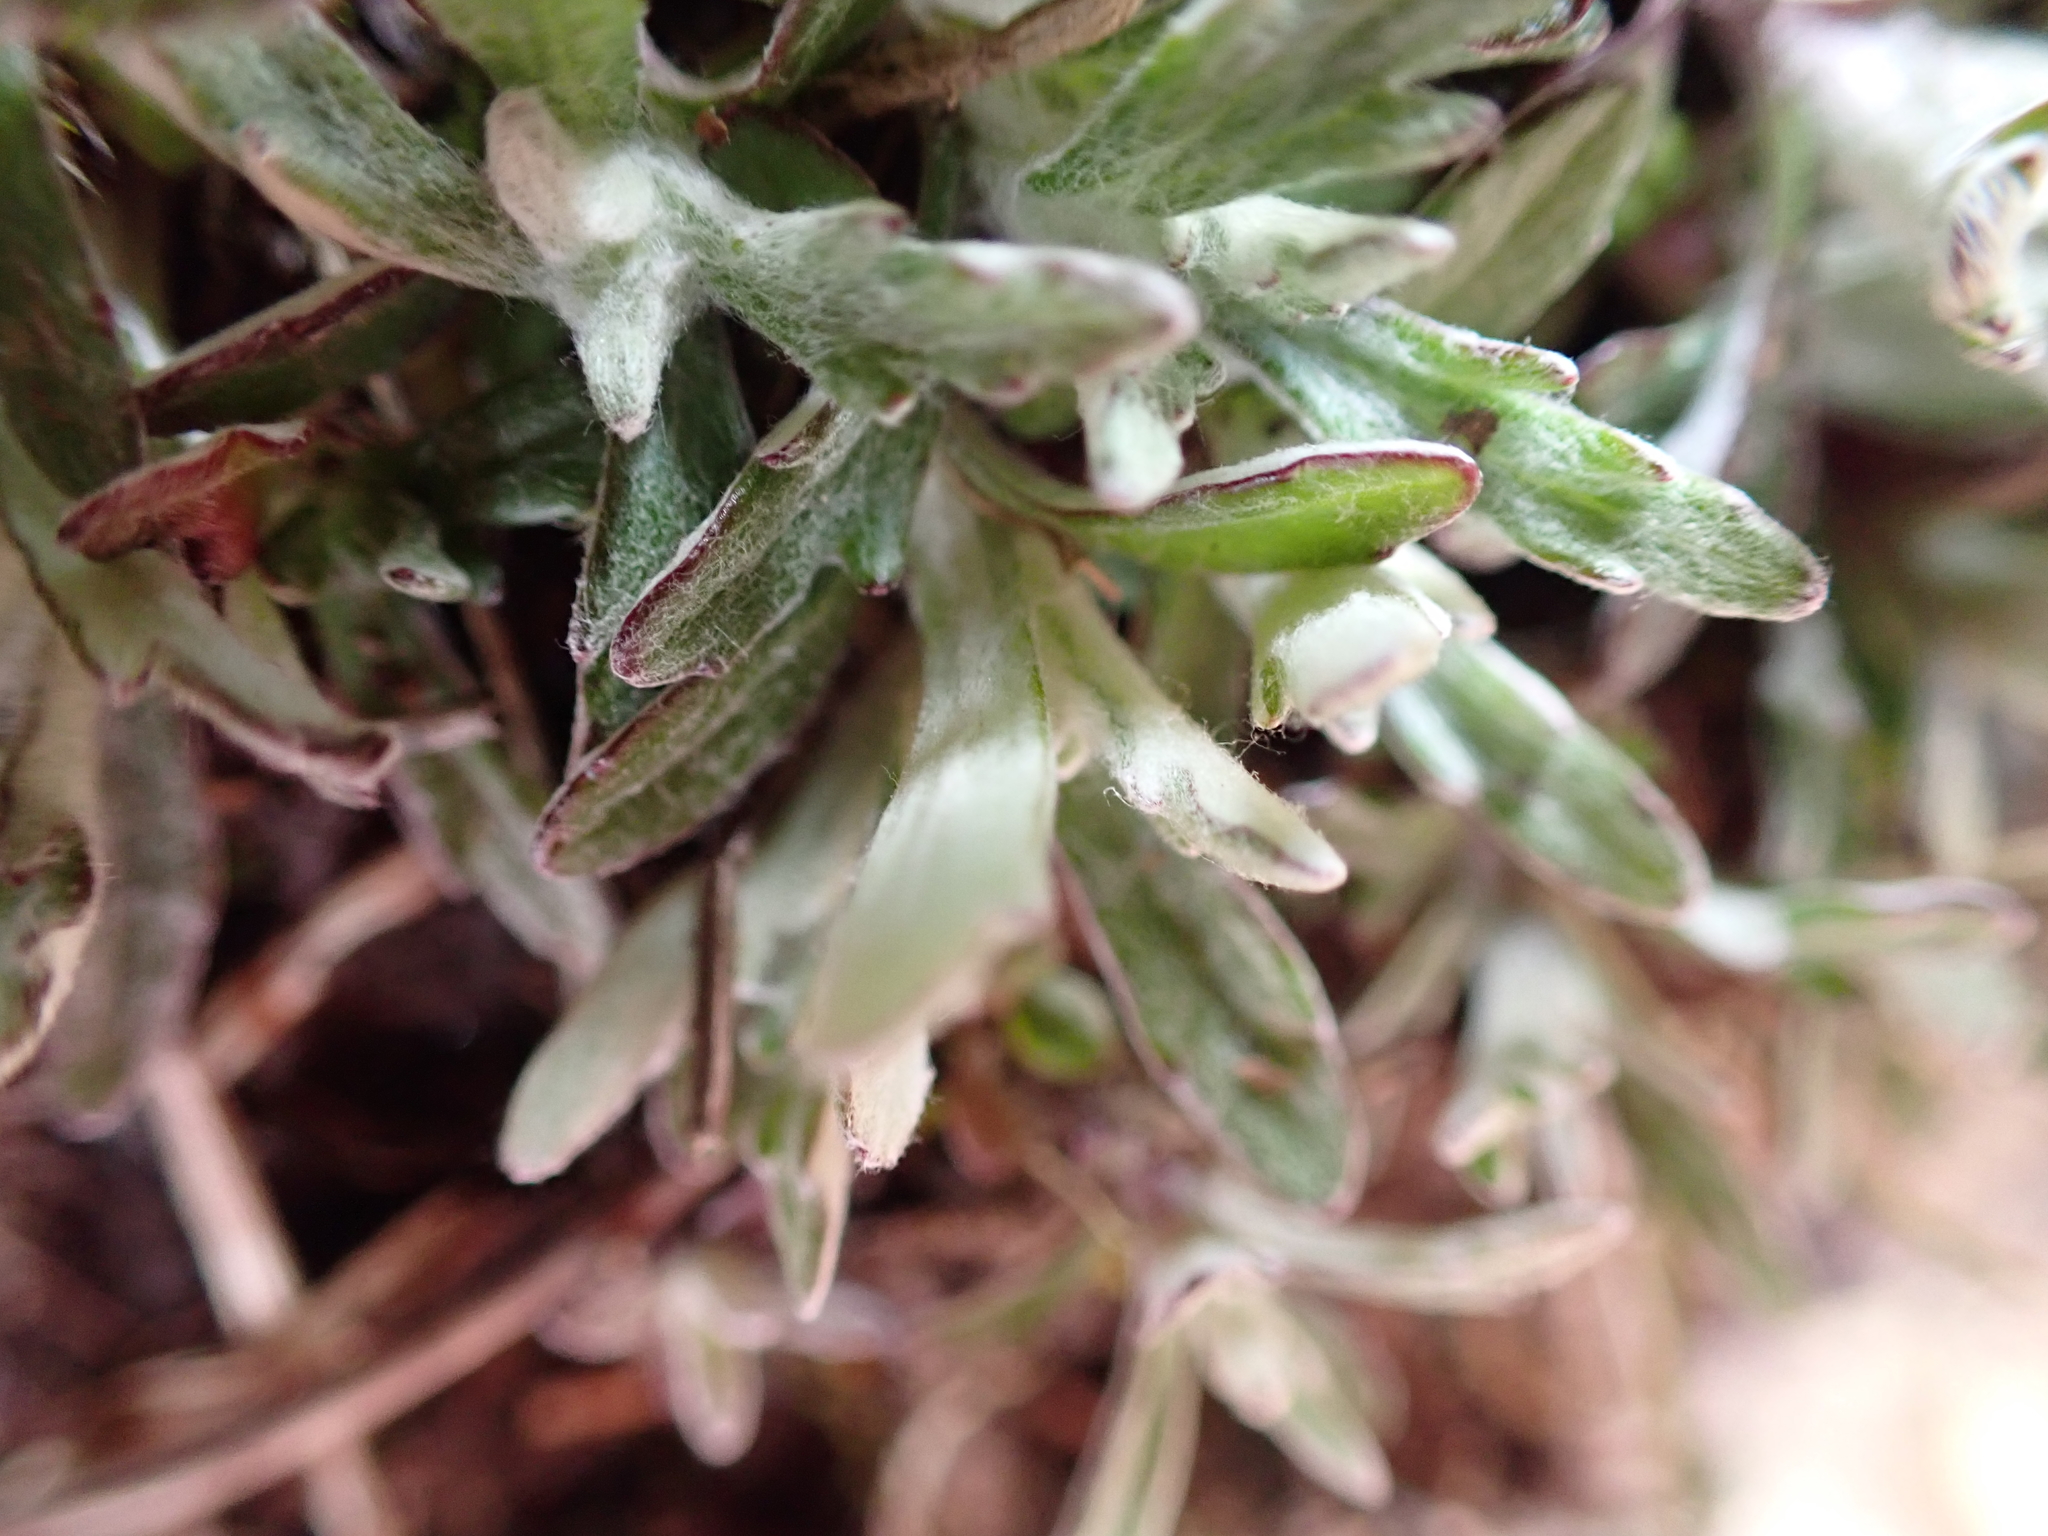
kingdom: Plantae
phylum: Tracheophyta
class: Magnoliopsida
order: Asterales
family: Asteraceae
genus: Eriophyllum
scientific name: Eriophyllum lanatum
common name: Common woolly-sunflower
